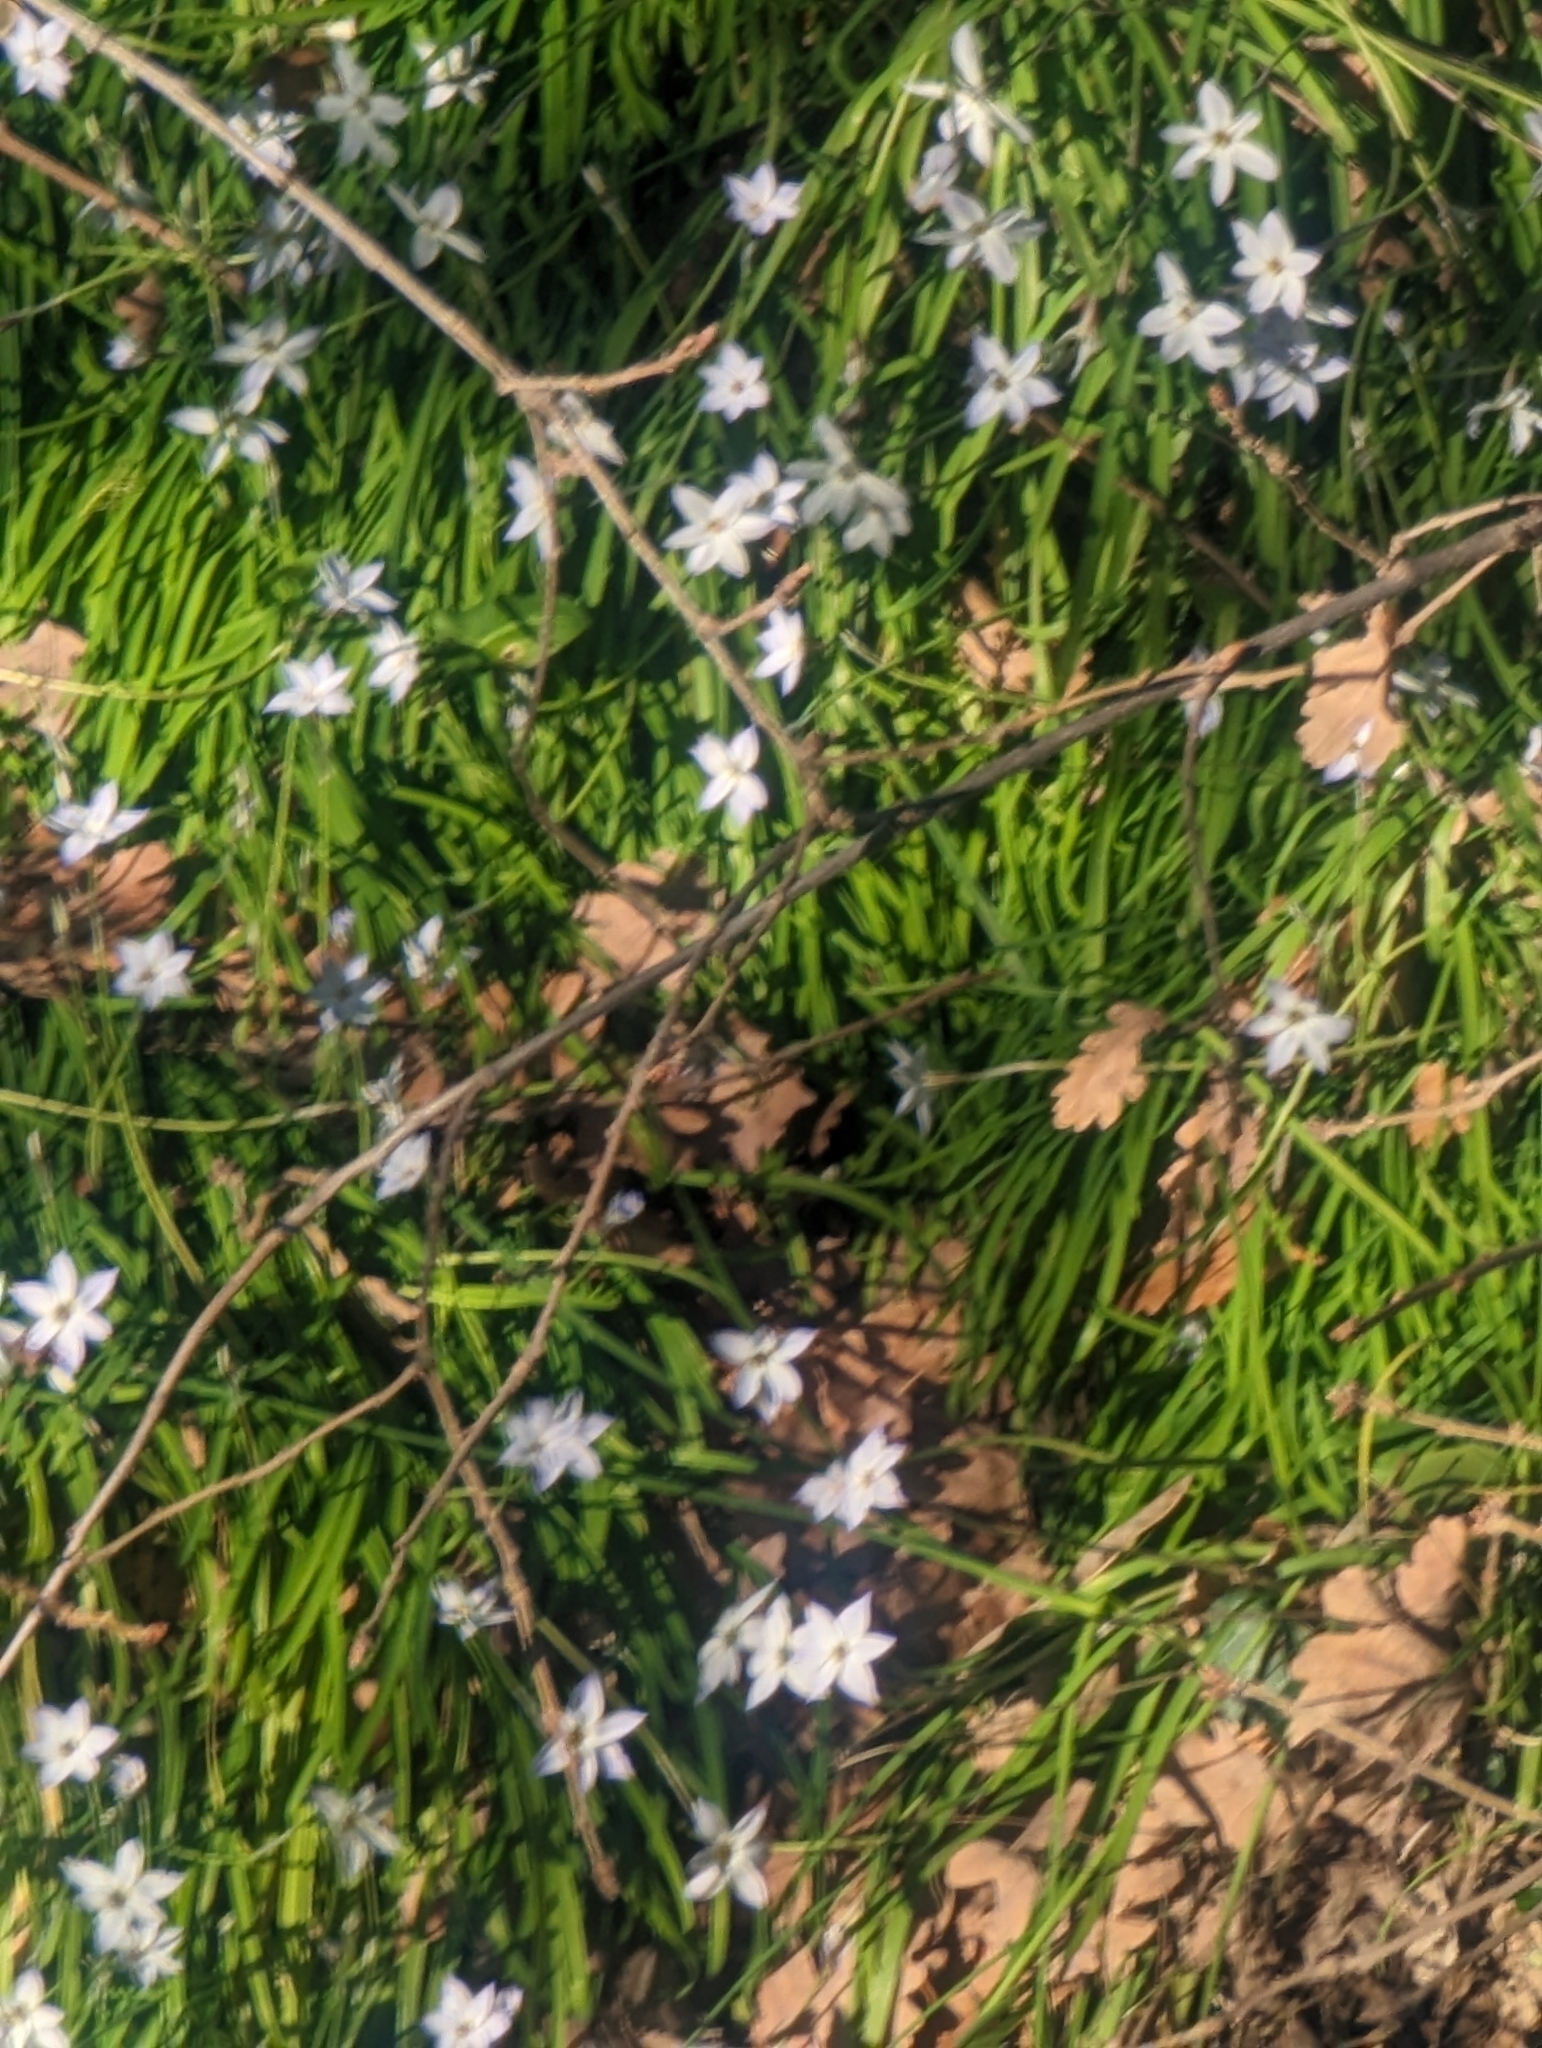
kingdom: Plantae
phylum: Tracheophyta
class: Liliopsida
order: Asparagales
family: Amaryllidaceae
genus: Ipheion
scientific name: Ipheion uniflorum
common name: Spring starflower
